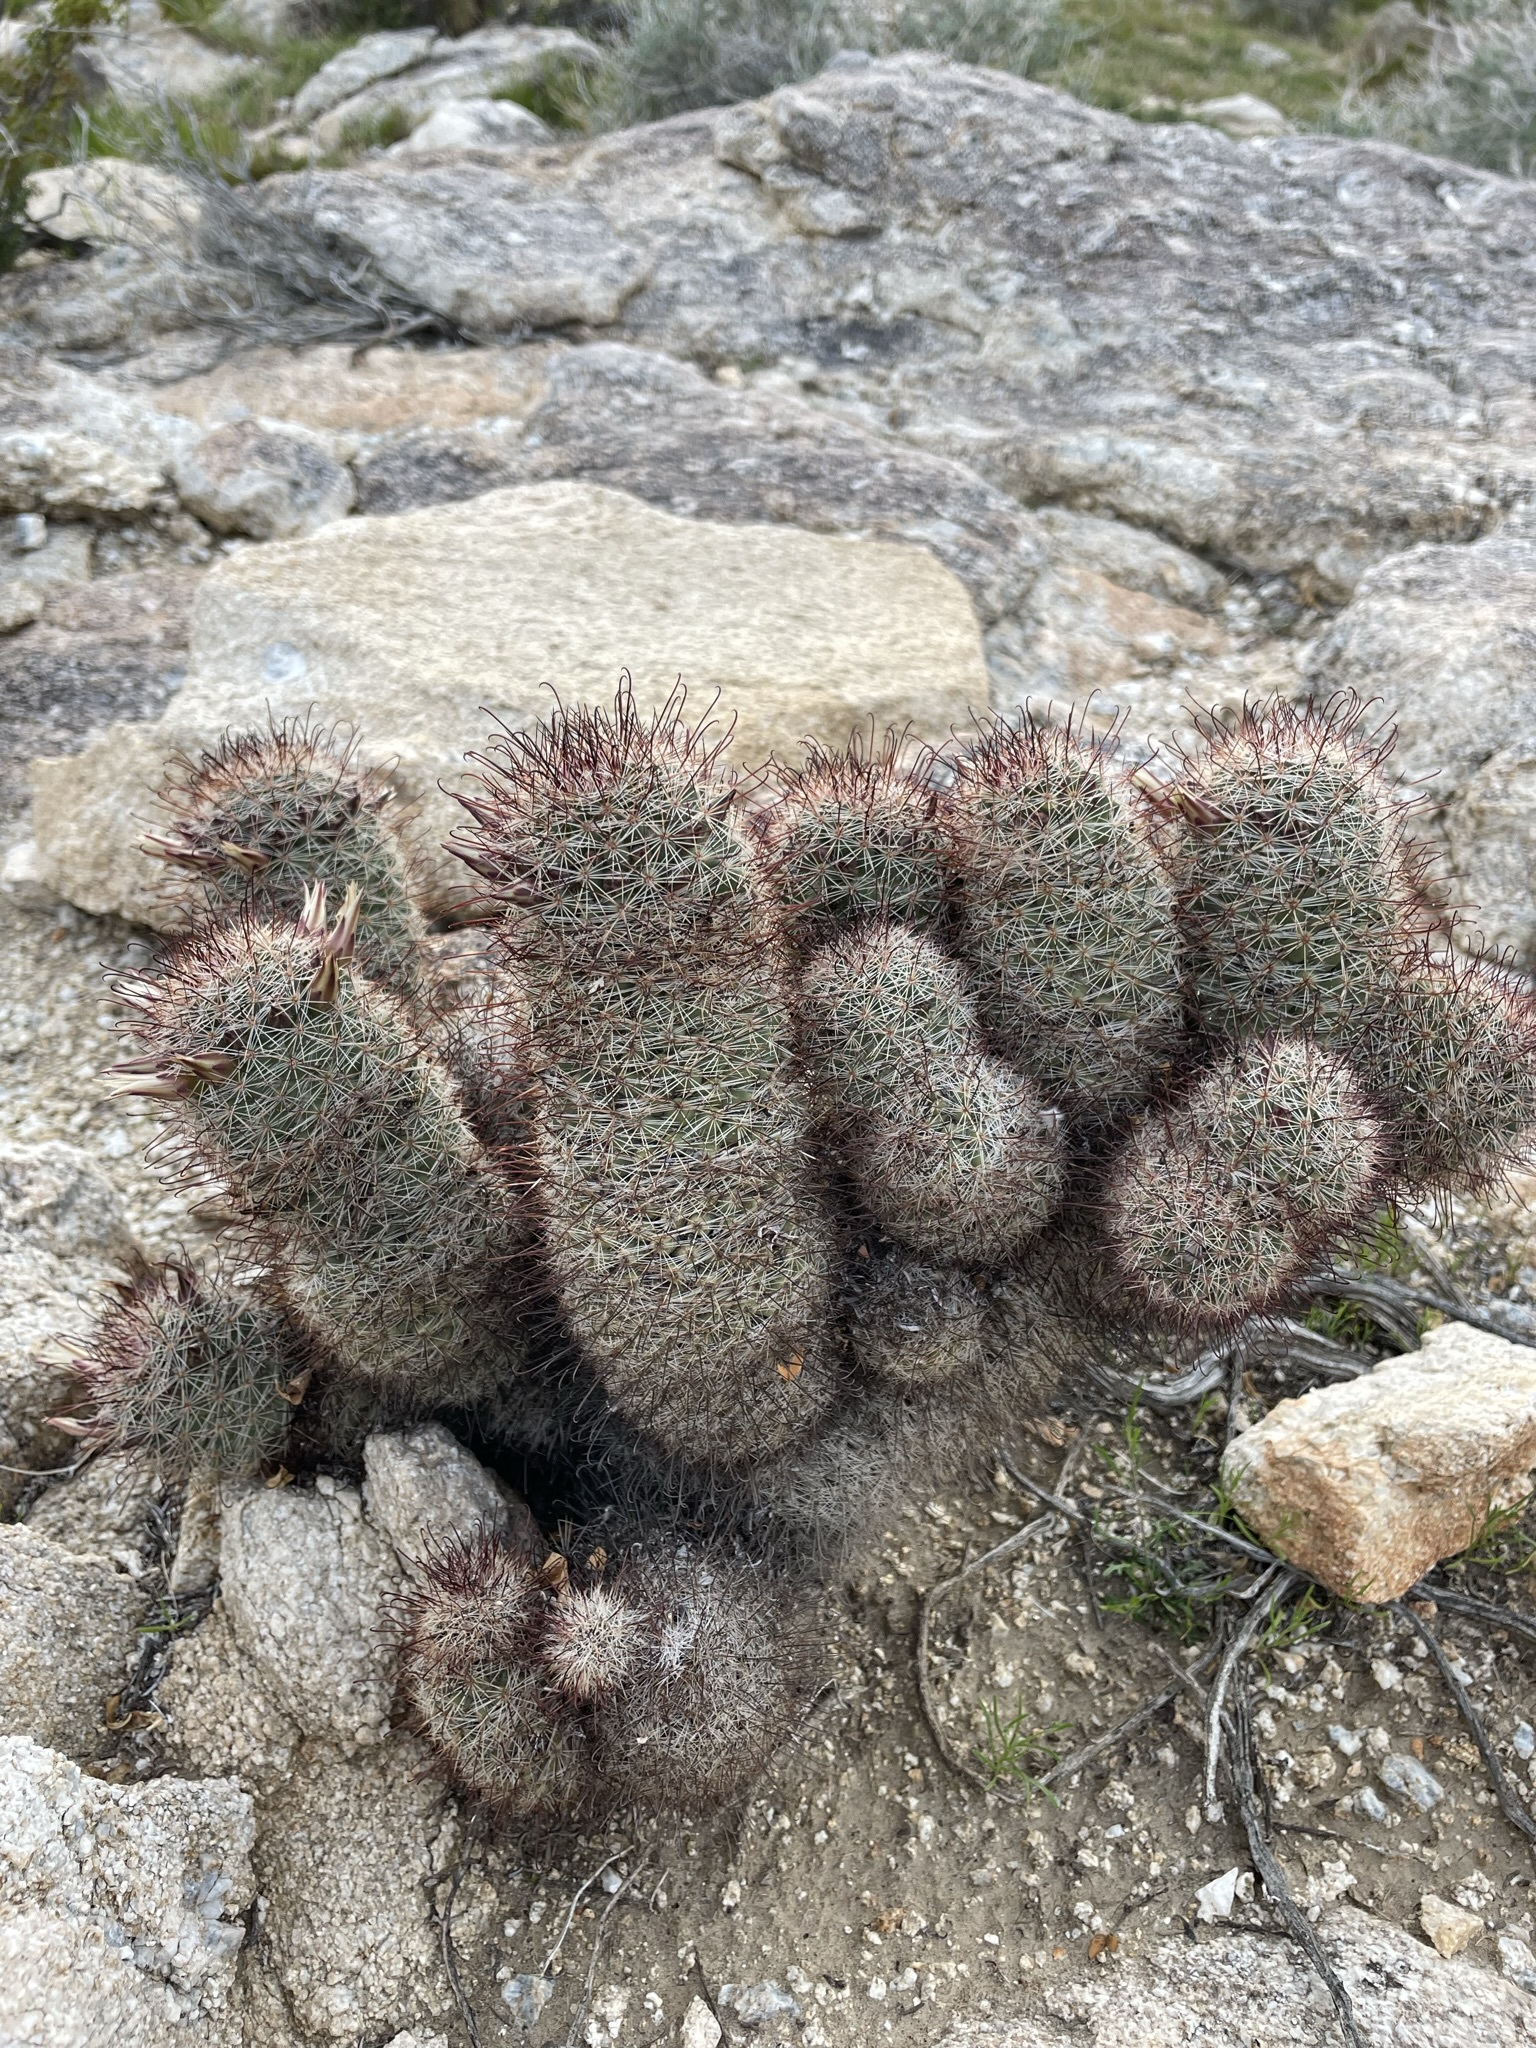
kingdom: Plantae
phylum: Tracheophyta
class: Magnoliopsida
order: Caryophyllales
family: Cactaceae
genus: Cochemiea
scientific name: Cochemiea dioica
